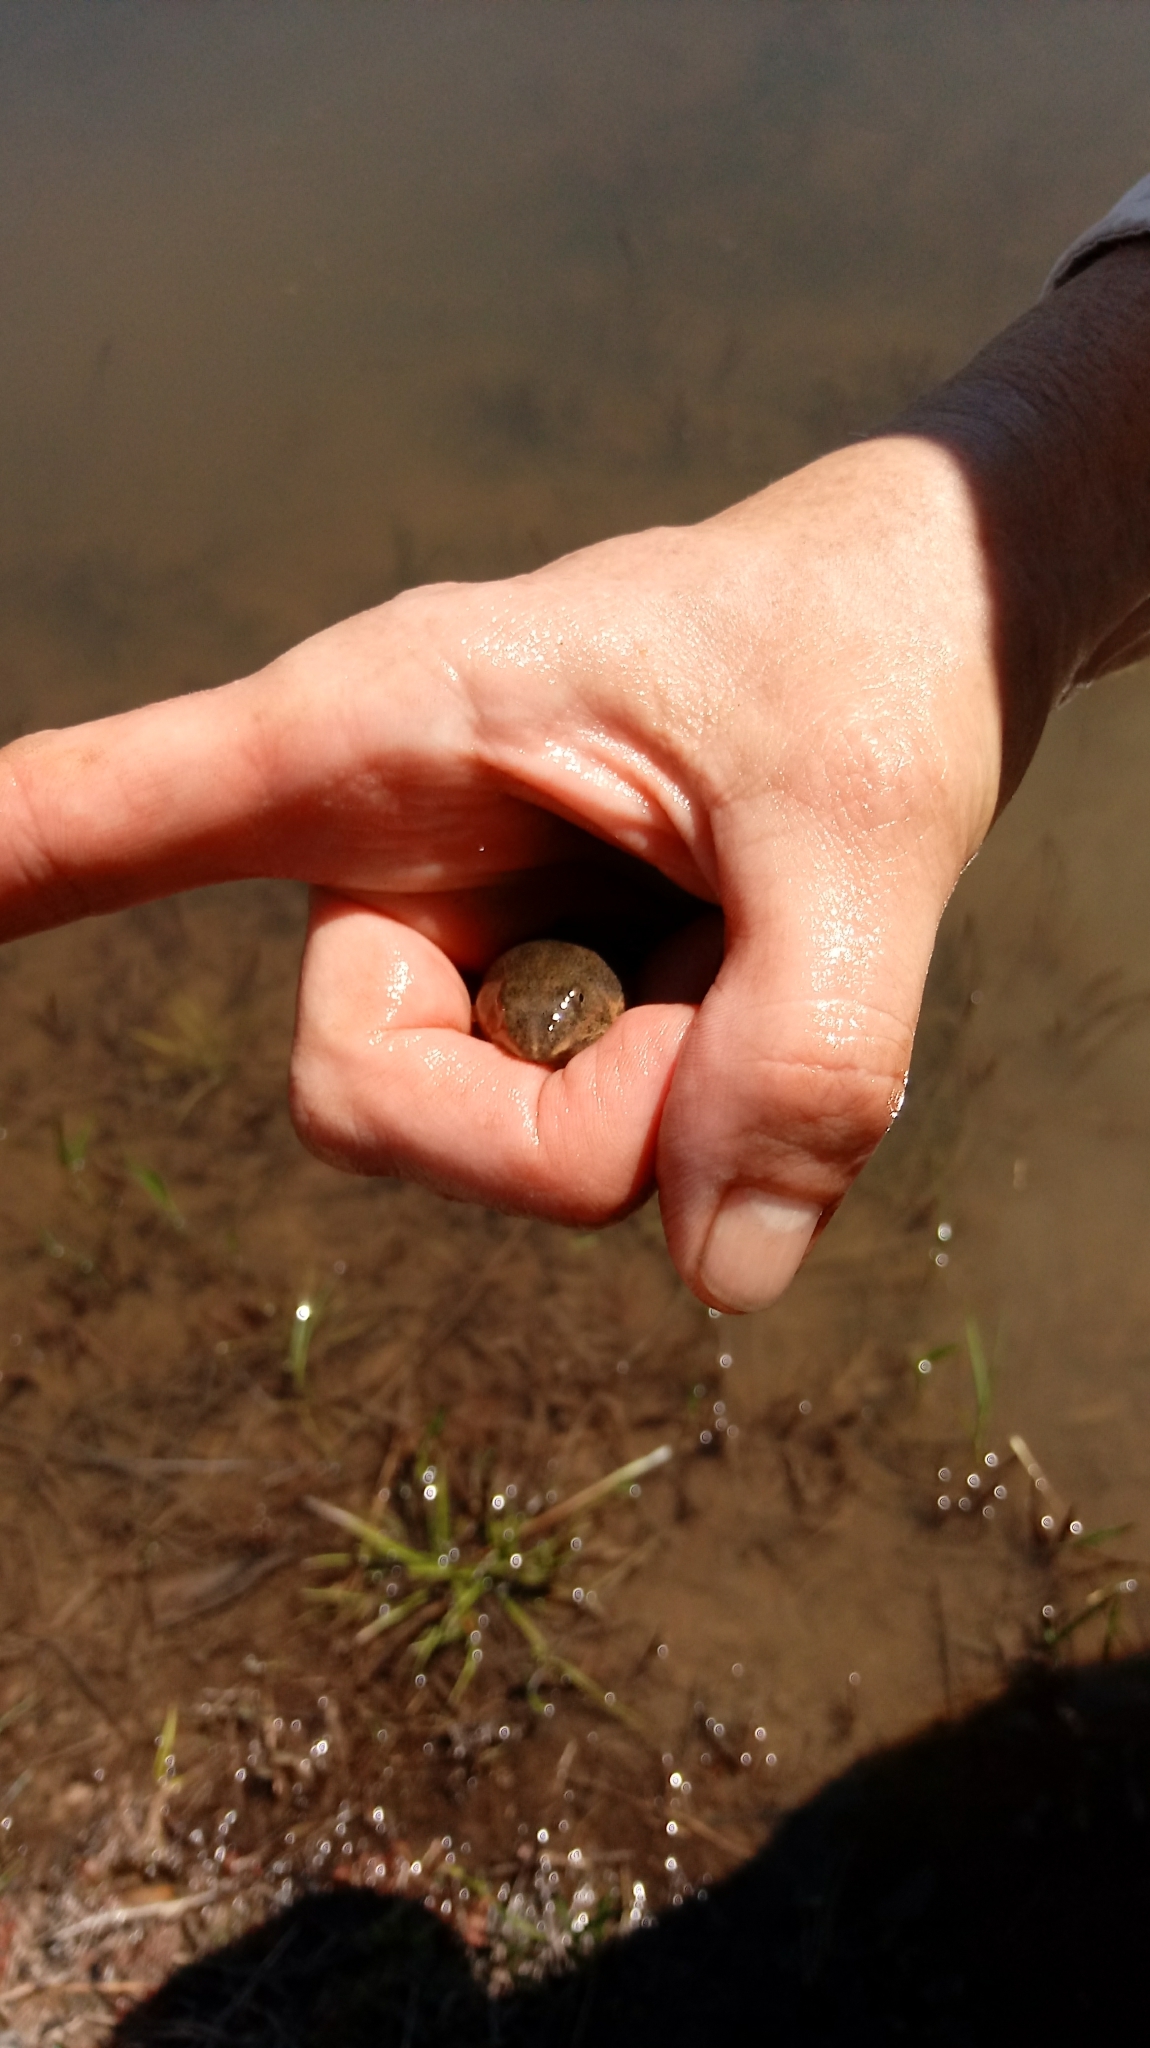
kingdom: Animalia
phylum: Chordata
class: Amphibia
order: Anura
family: Ranidae
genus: Lithobates
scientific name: Lithobates sphenocephalus
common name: Southern leopard frog
